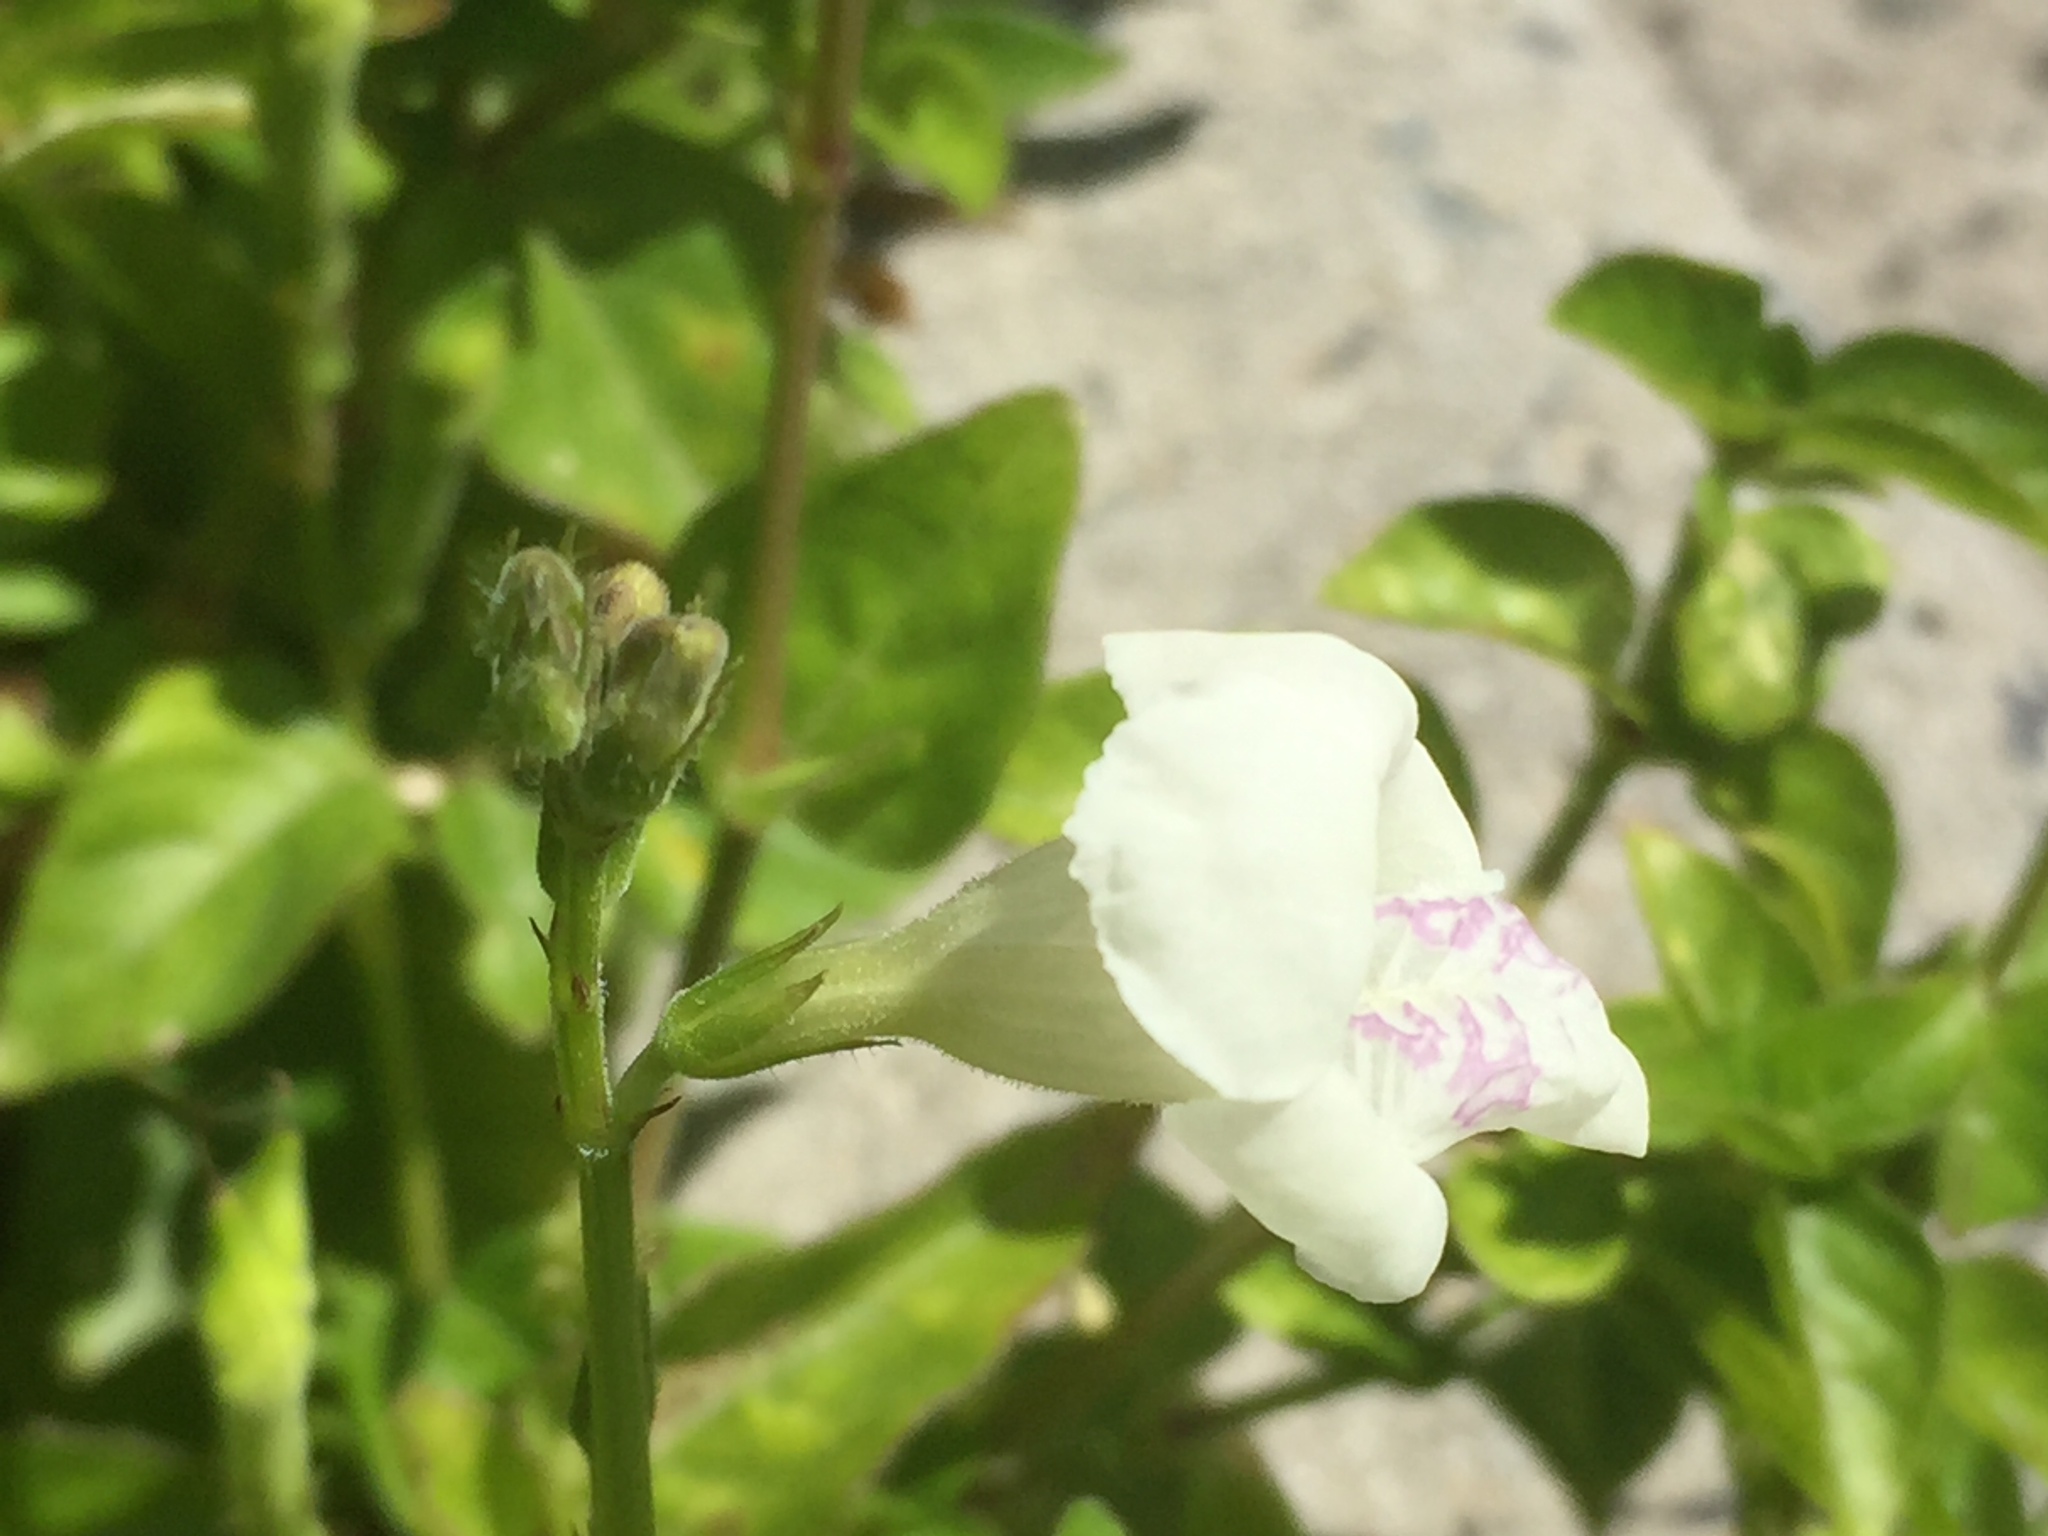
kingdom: Plantae
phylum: Tracheophyta
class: Magnoliopsida
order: Lamiales
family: Acanthaceae
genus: Asystasia
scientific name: Asystasia intrusa
